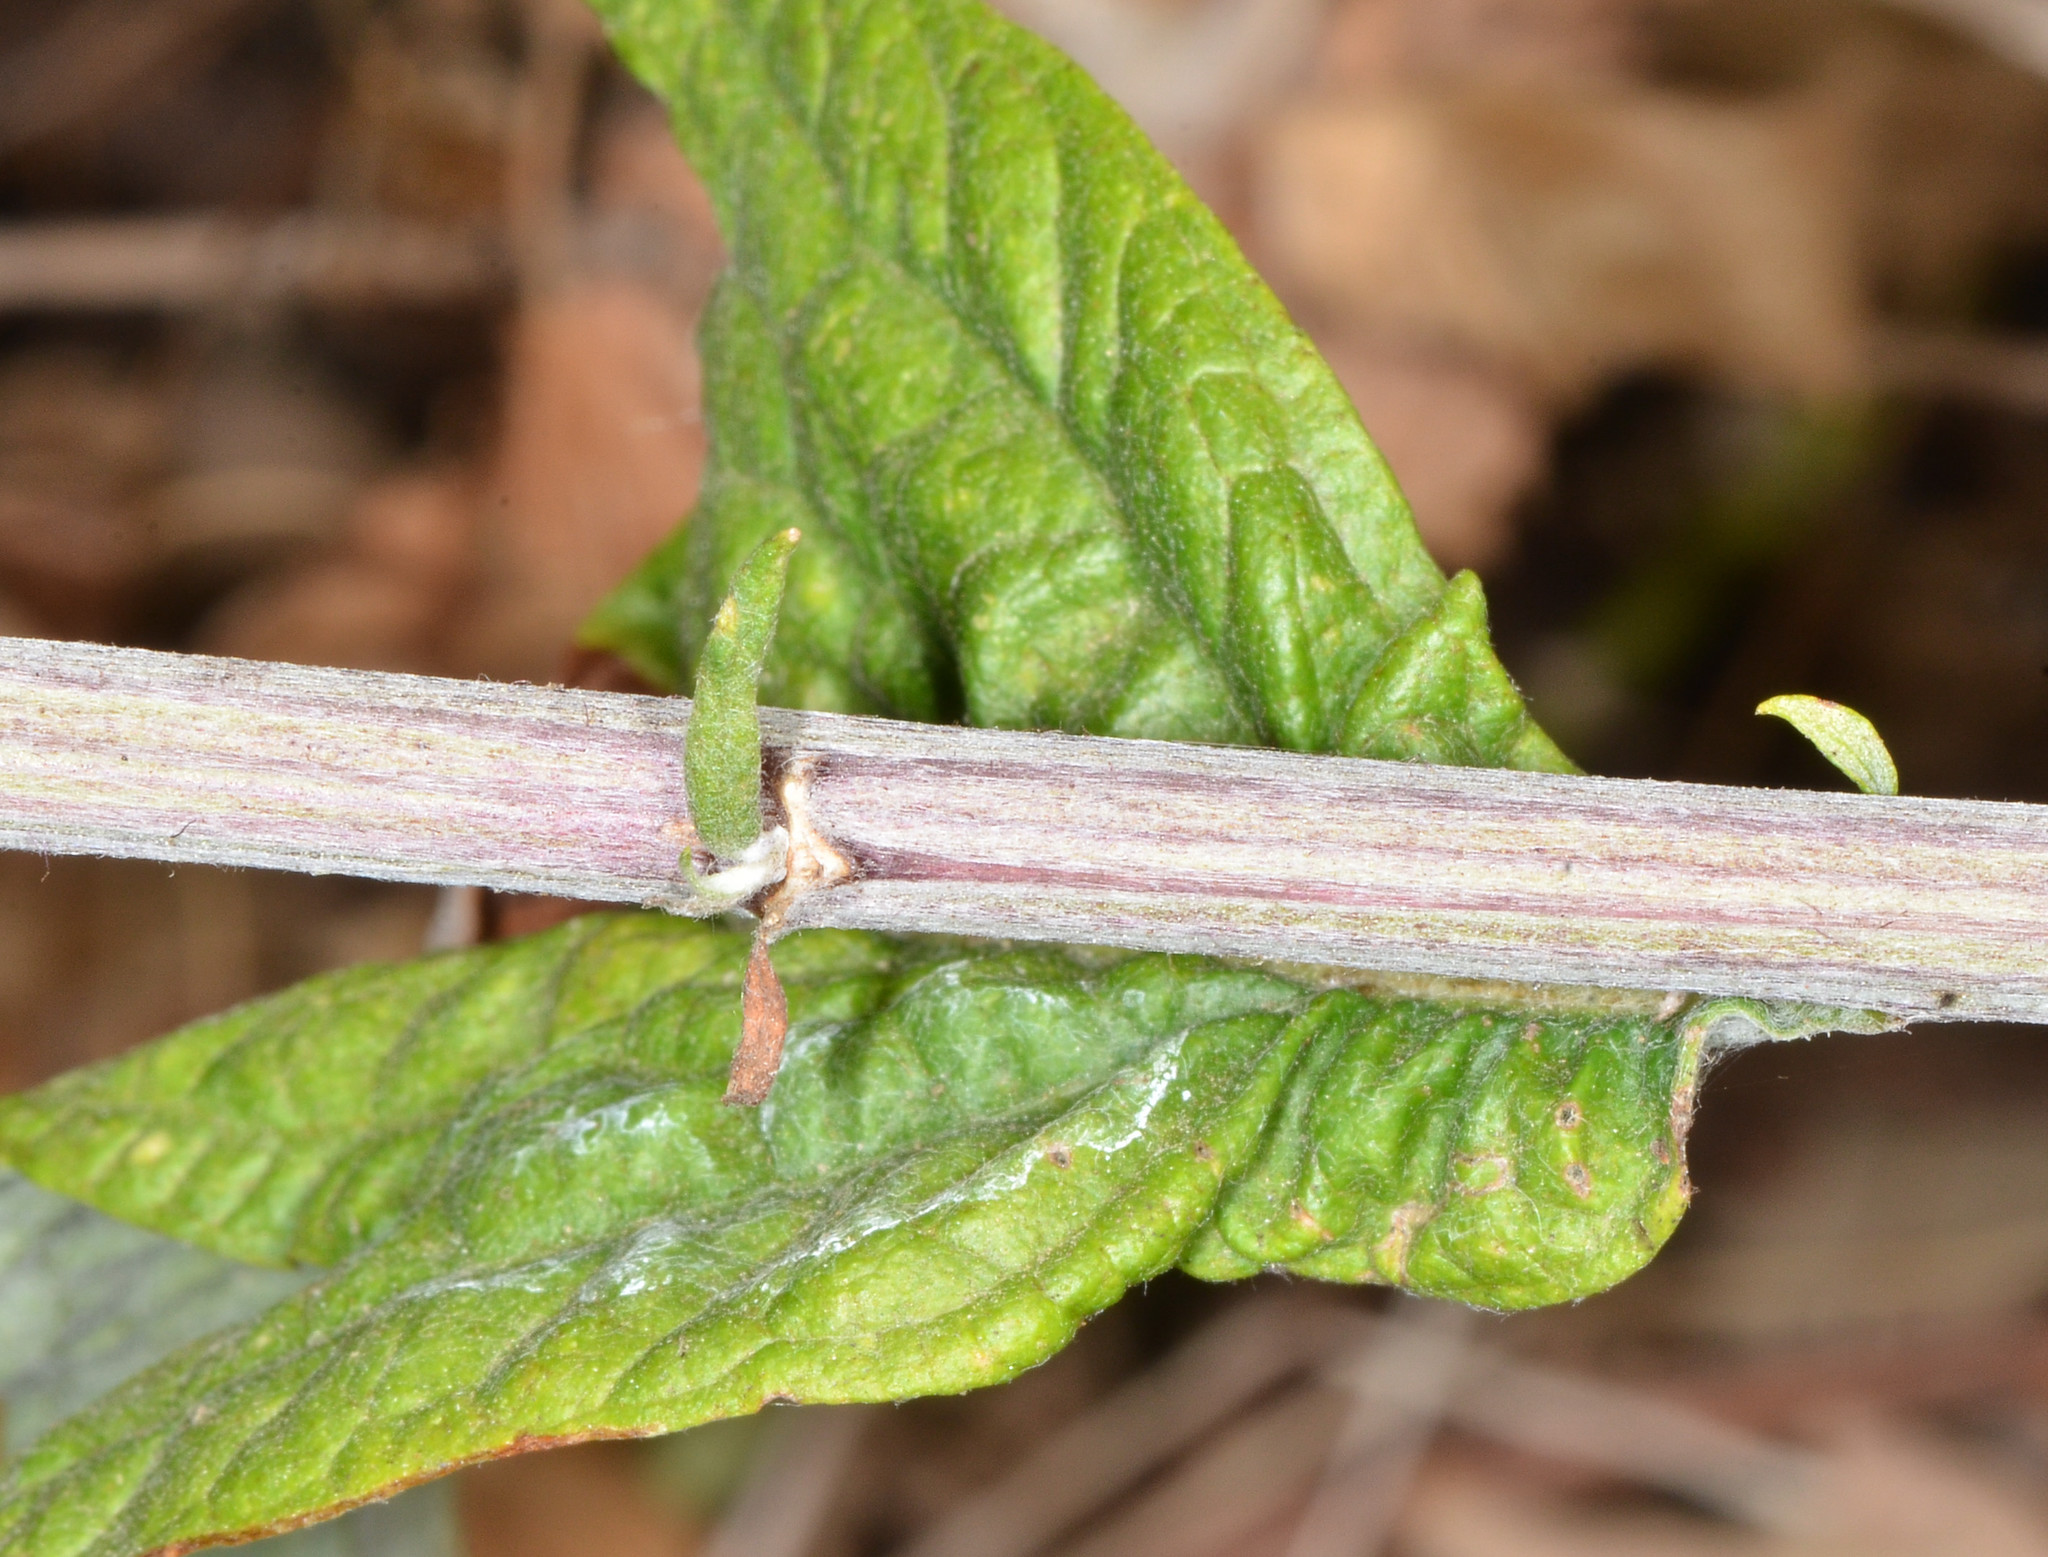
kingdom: Plantae
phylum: Tracheophyta
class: Magnoliopsida
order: Asterales
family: Asteraceae
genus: Artemisia
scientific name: Artemisia douglasiana
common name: Northwest mugwort
